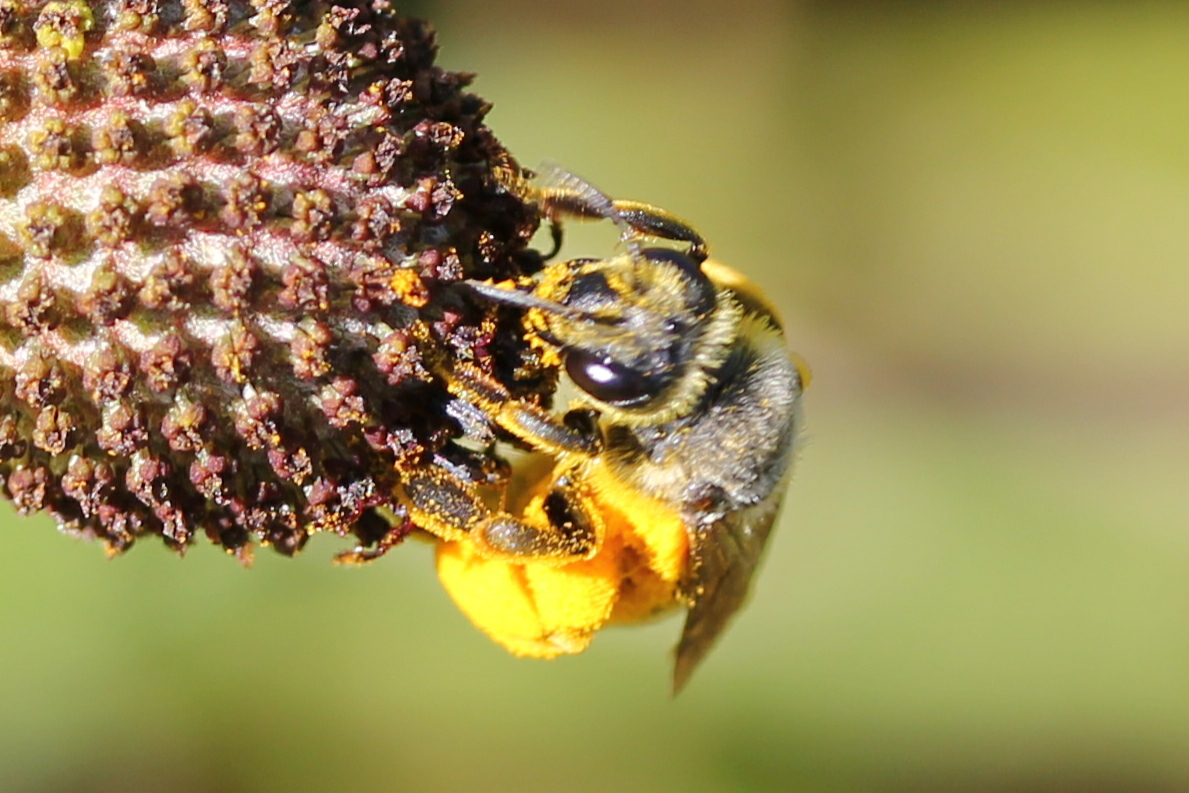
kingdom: Animalia
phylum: Arthropoda
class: Insecta
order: Hymenoptera
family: Andrenidae
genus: Andrena
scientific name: Andrena rudbeckiae
